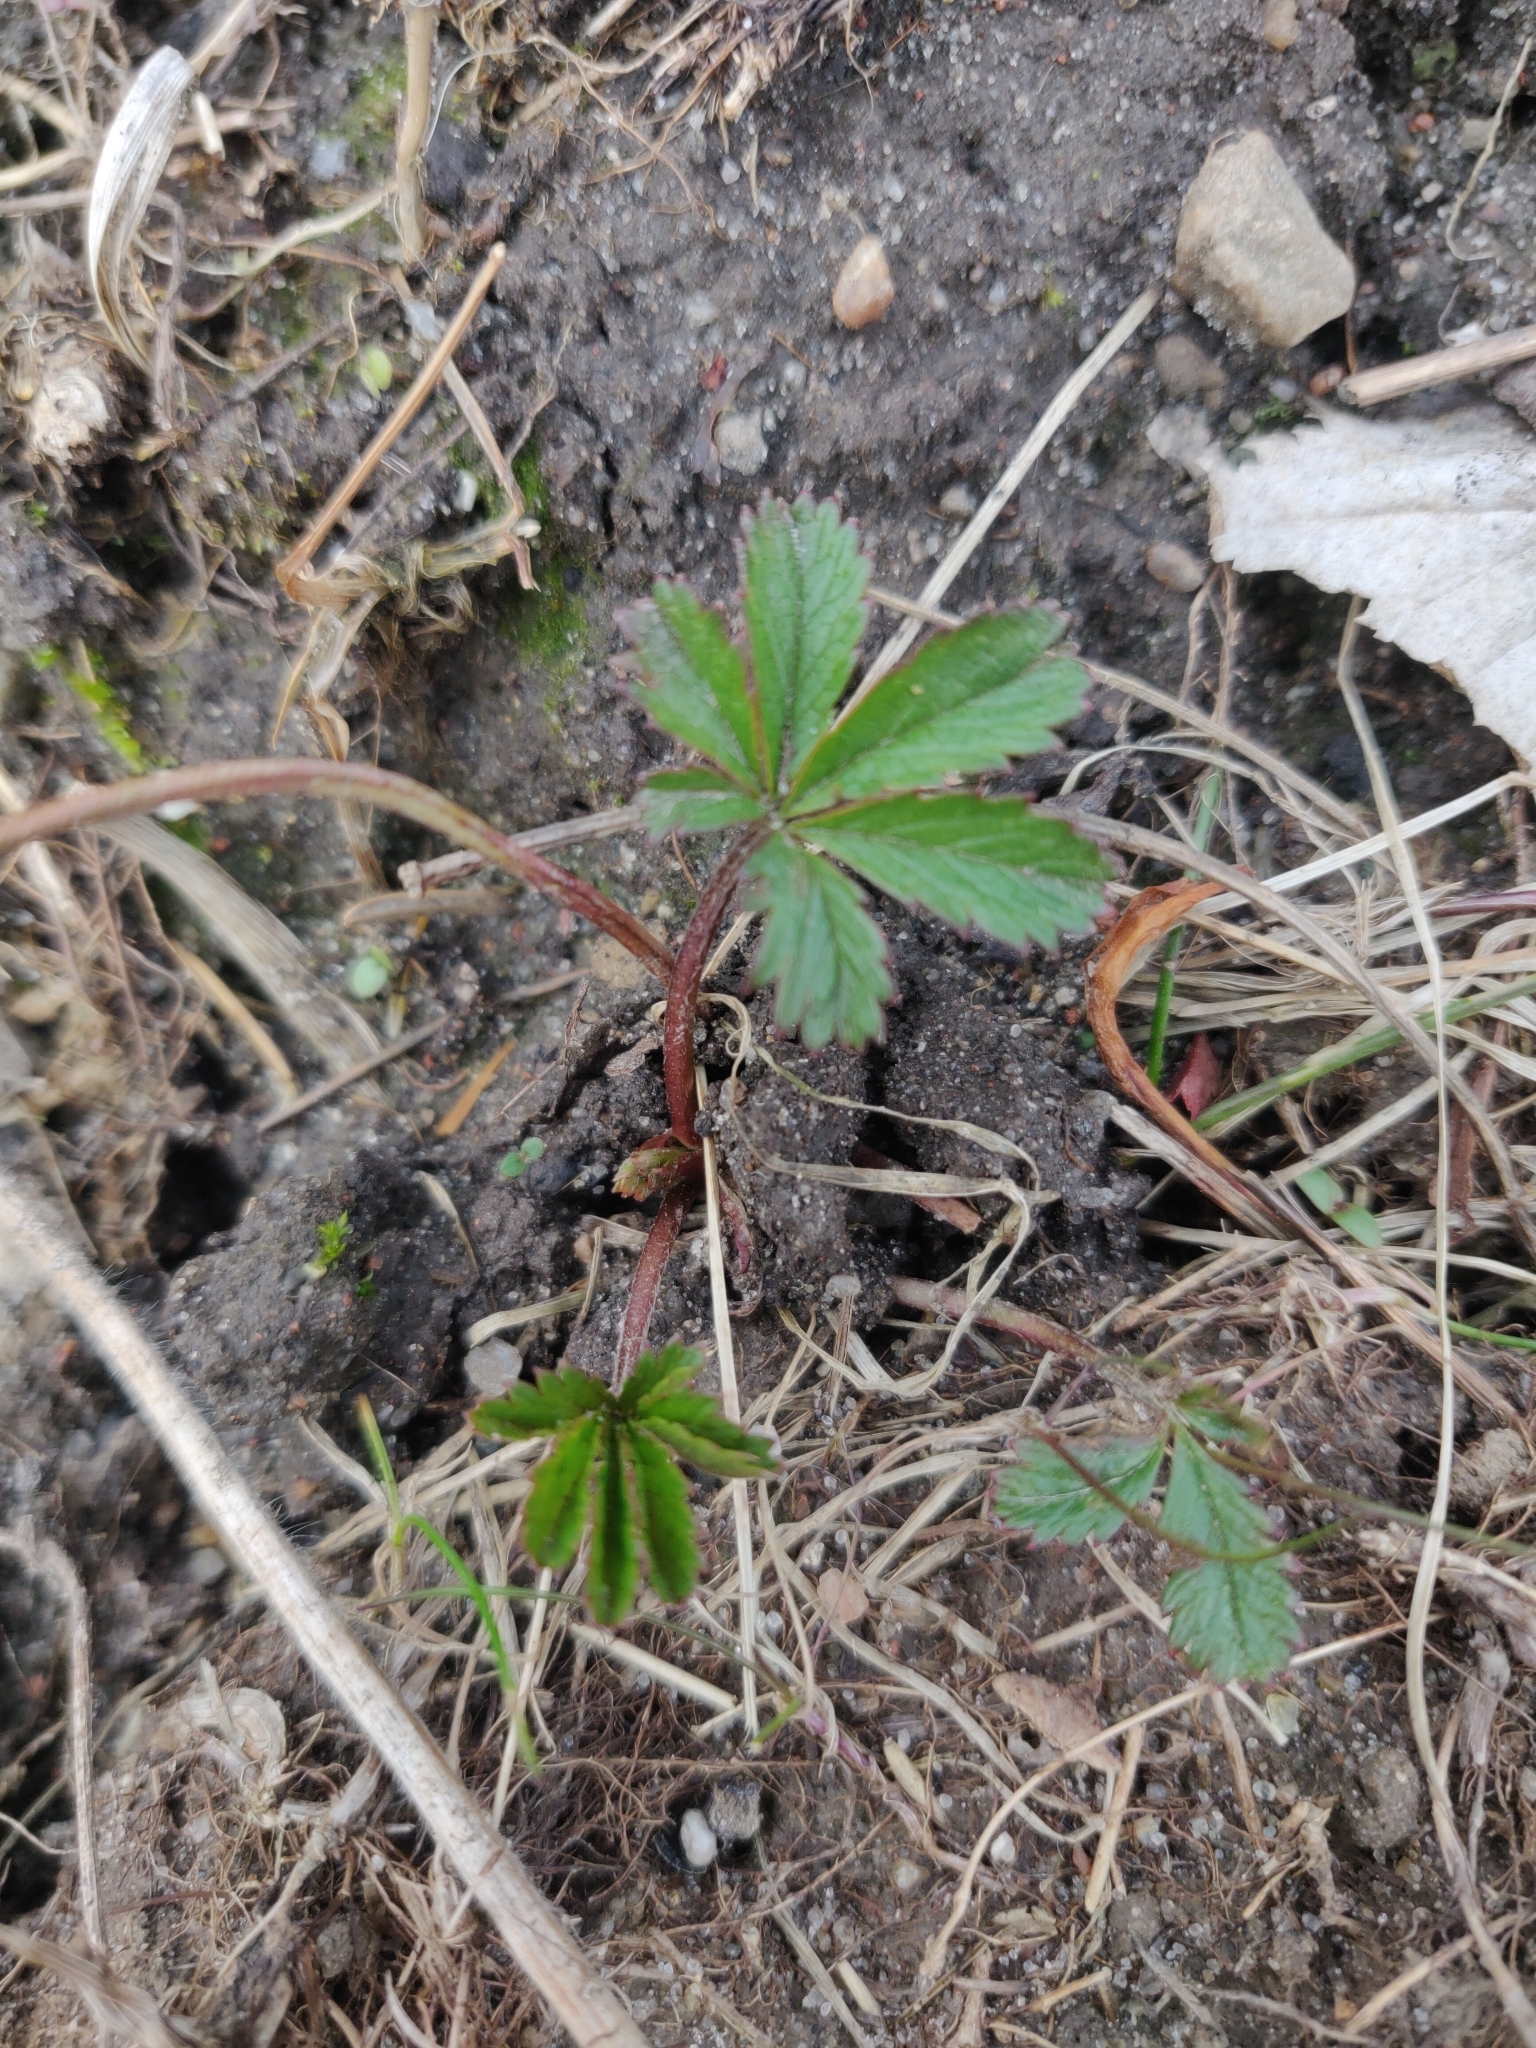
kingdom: Plantae
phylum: Tracheophyta
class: Magnoliopsida
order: Rosales
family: Rosaceae
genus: Potentilla
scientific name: Potentilla reptans
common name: Creeping cinquefoil
